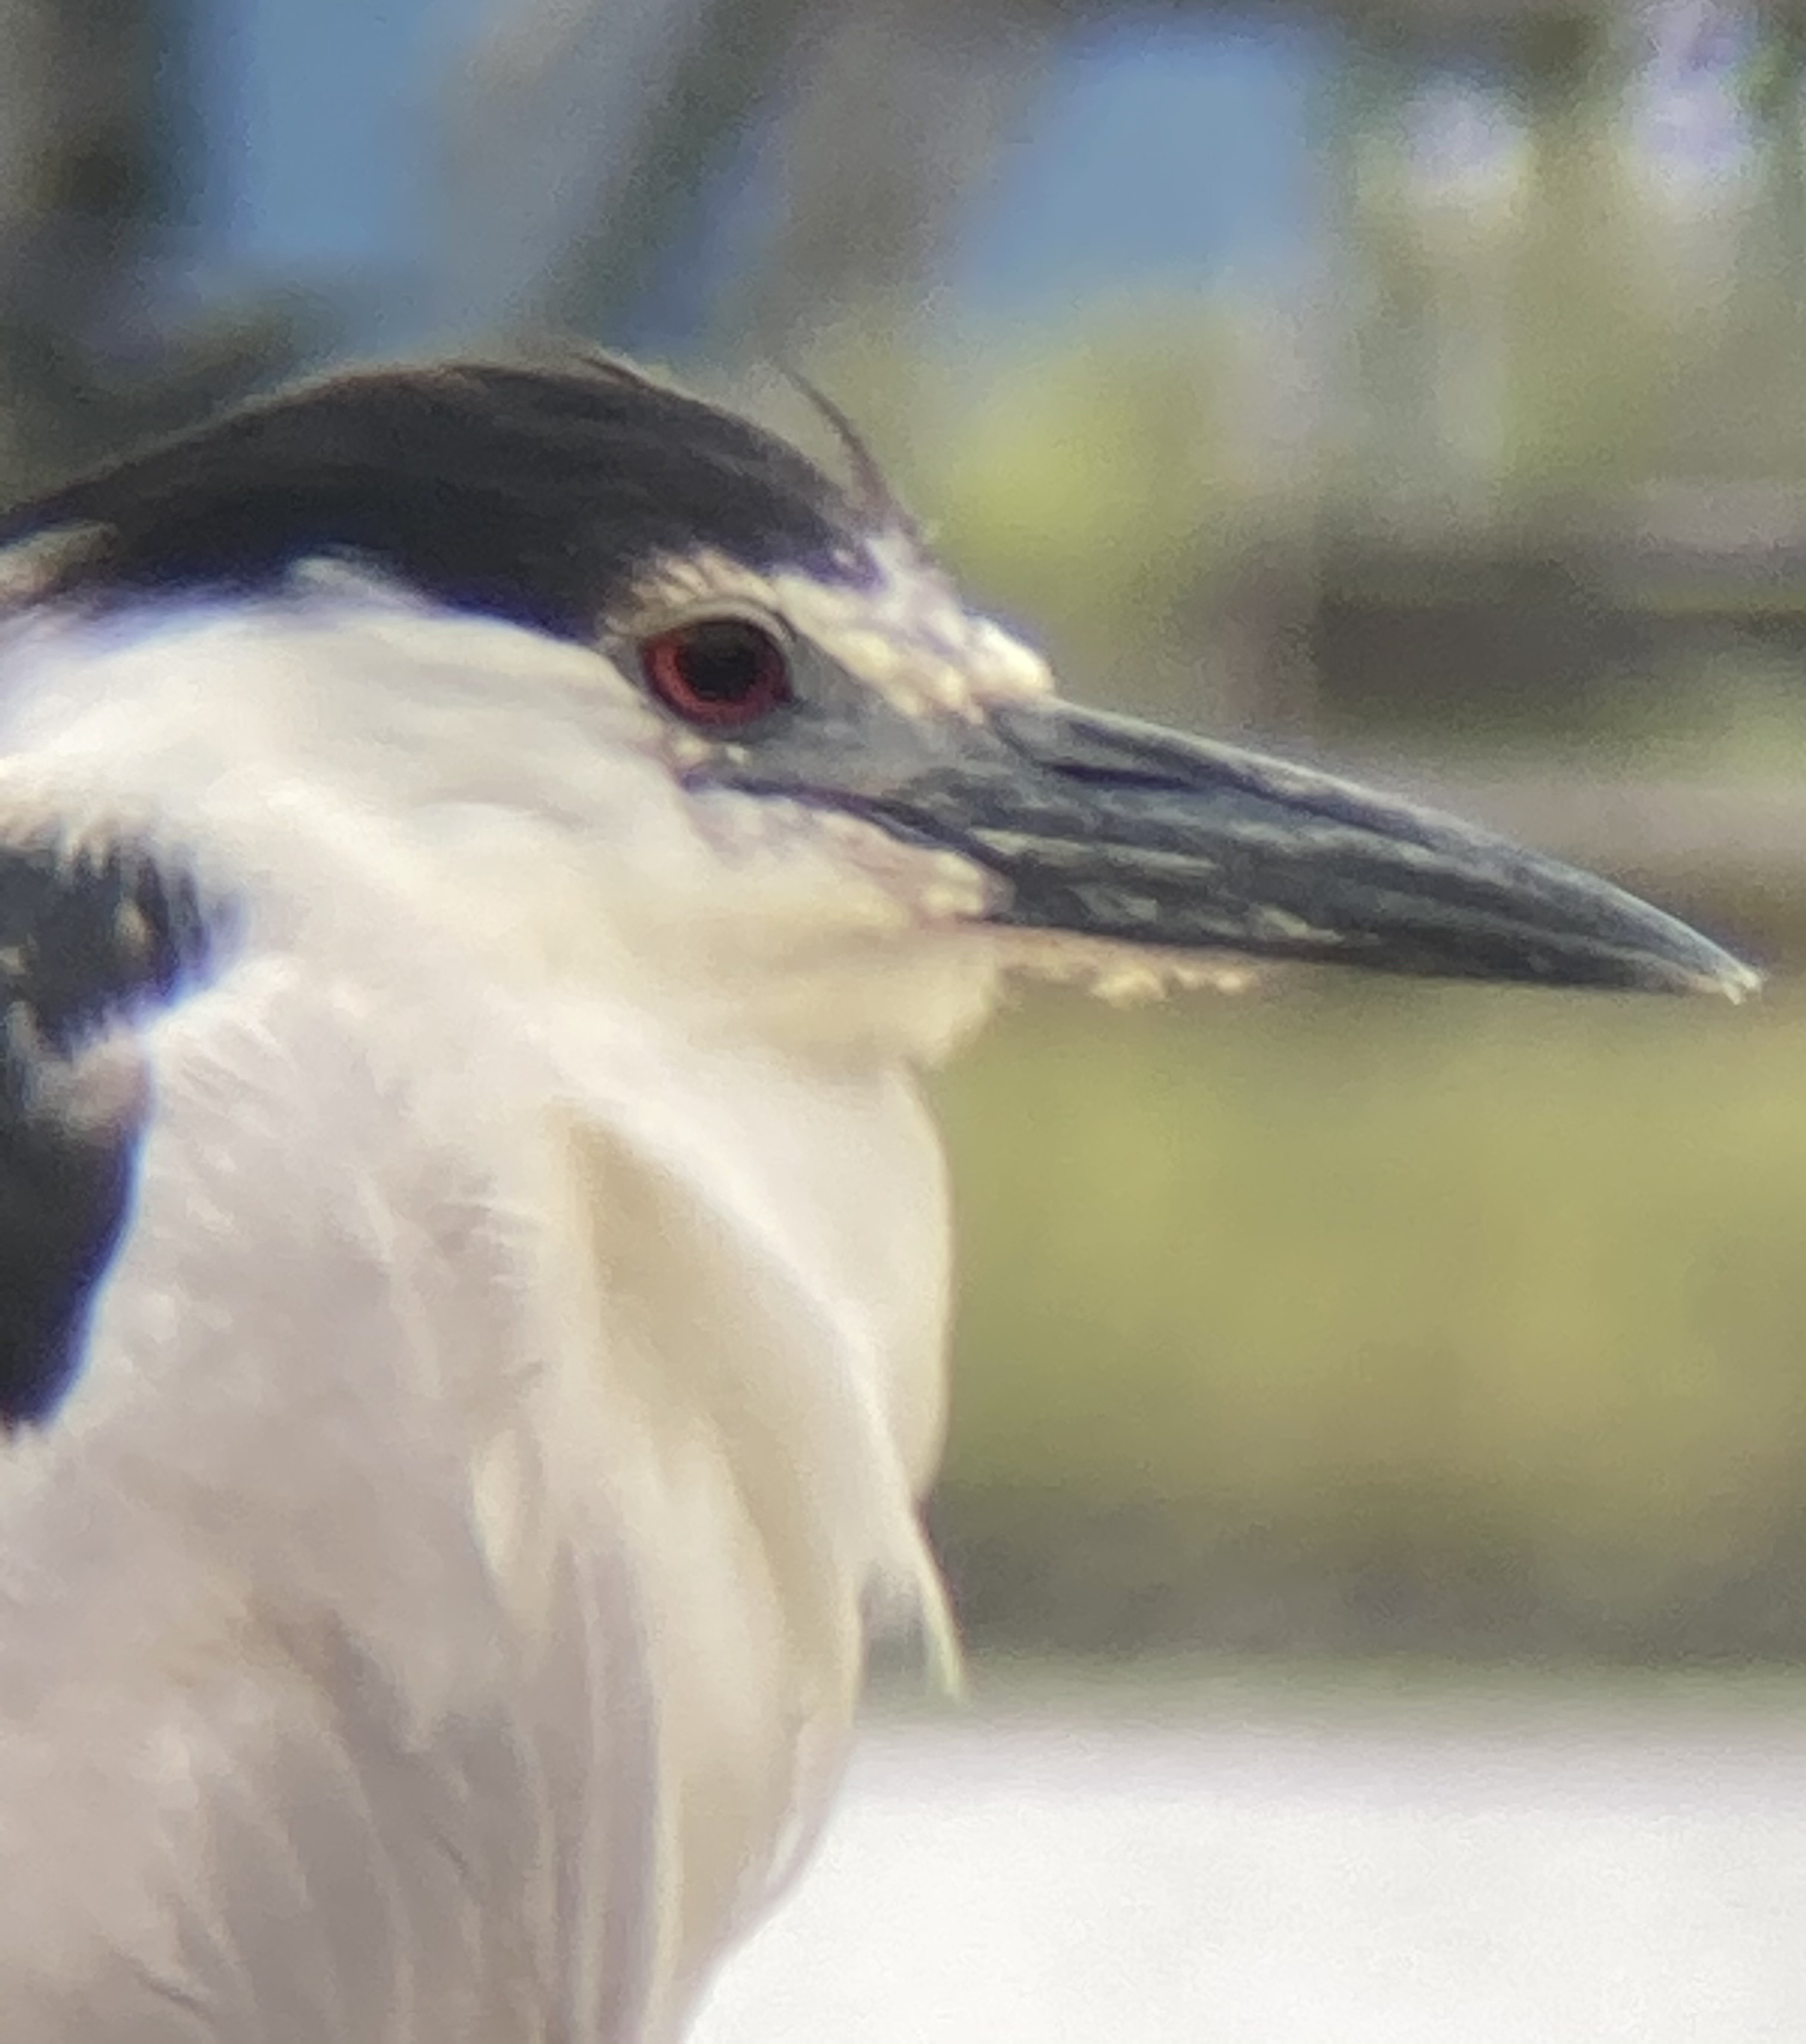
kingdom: Animalia
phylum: Chordata
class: Aves
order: Pelecaniformes
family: Ardeidae
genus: Nycticorax
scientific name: Nycticorax nycticorax
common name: Black-crowned night heron
